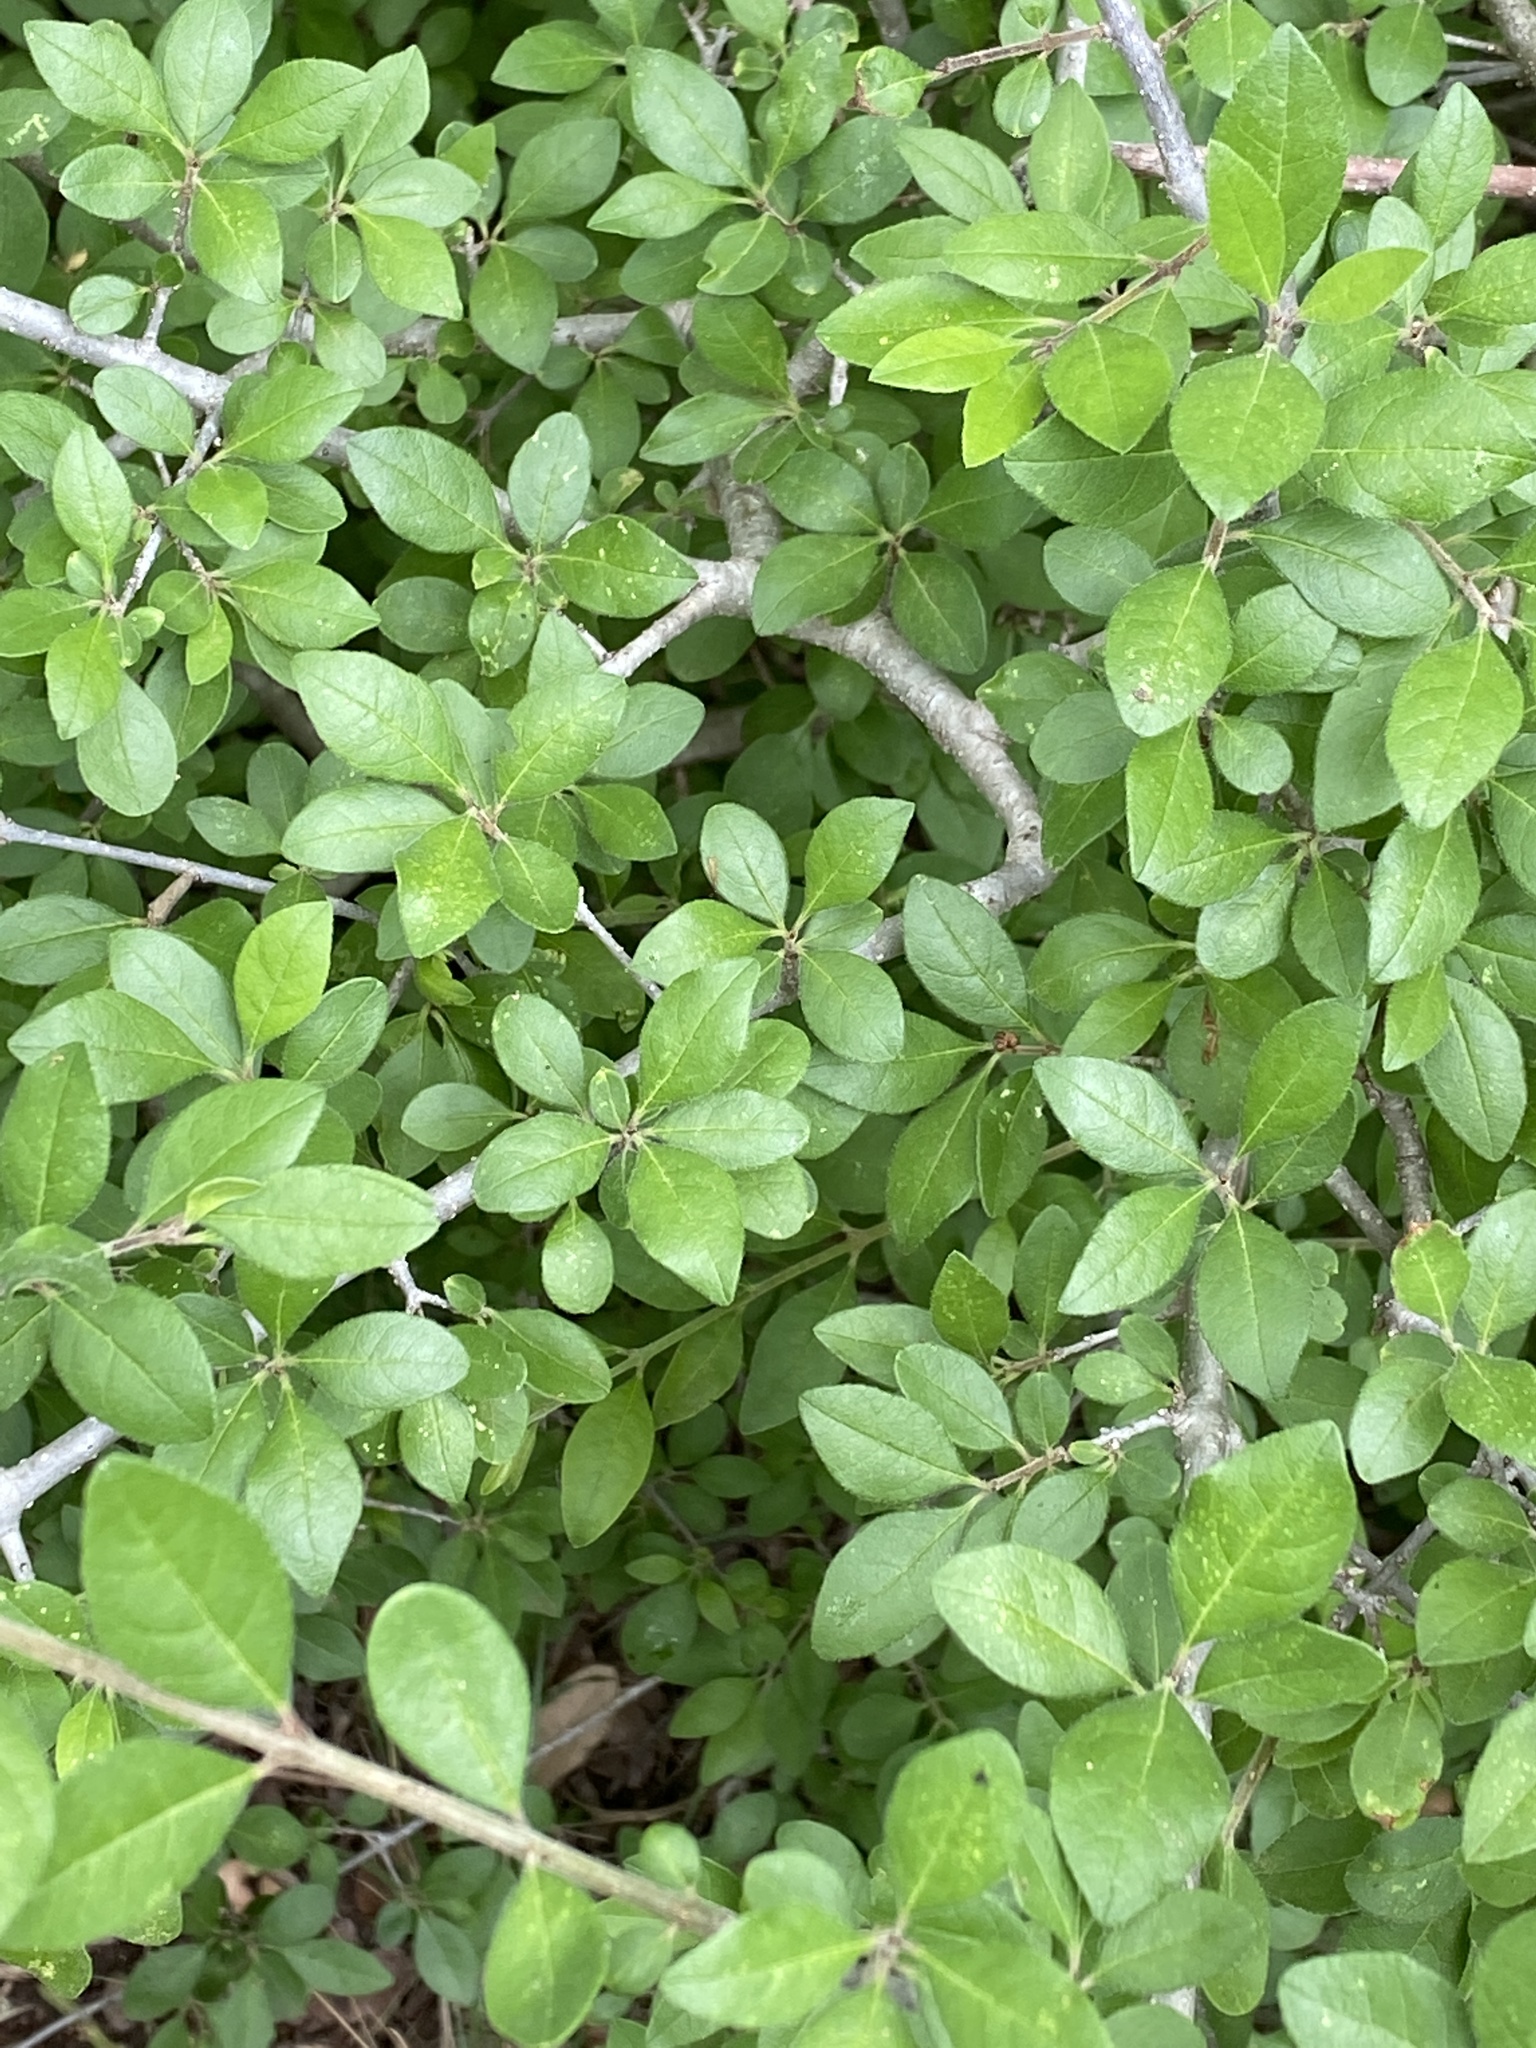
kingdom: Plantae
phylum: Tracheophyta
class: Magnoliopsida
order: Lamiales
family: Oleaceae
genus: Forestiera
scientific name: Forestiera pubescens
